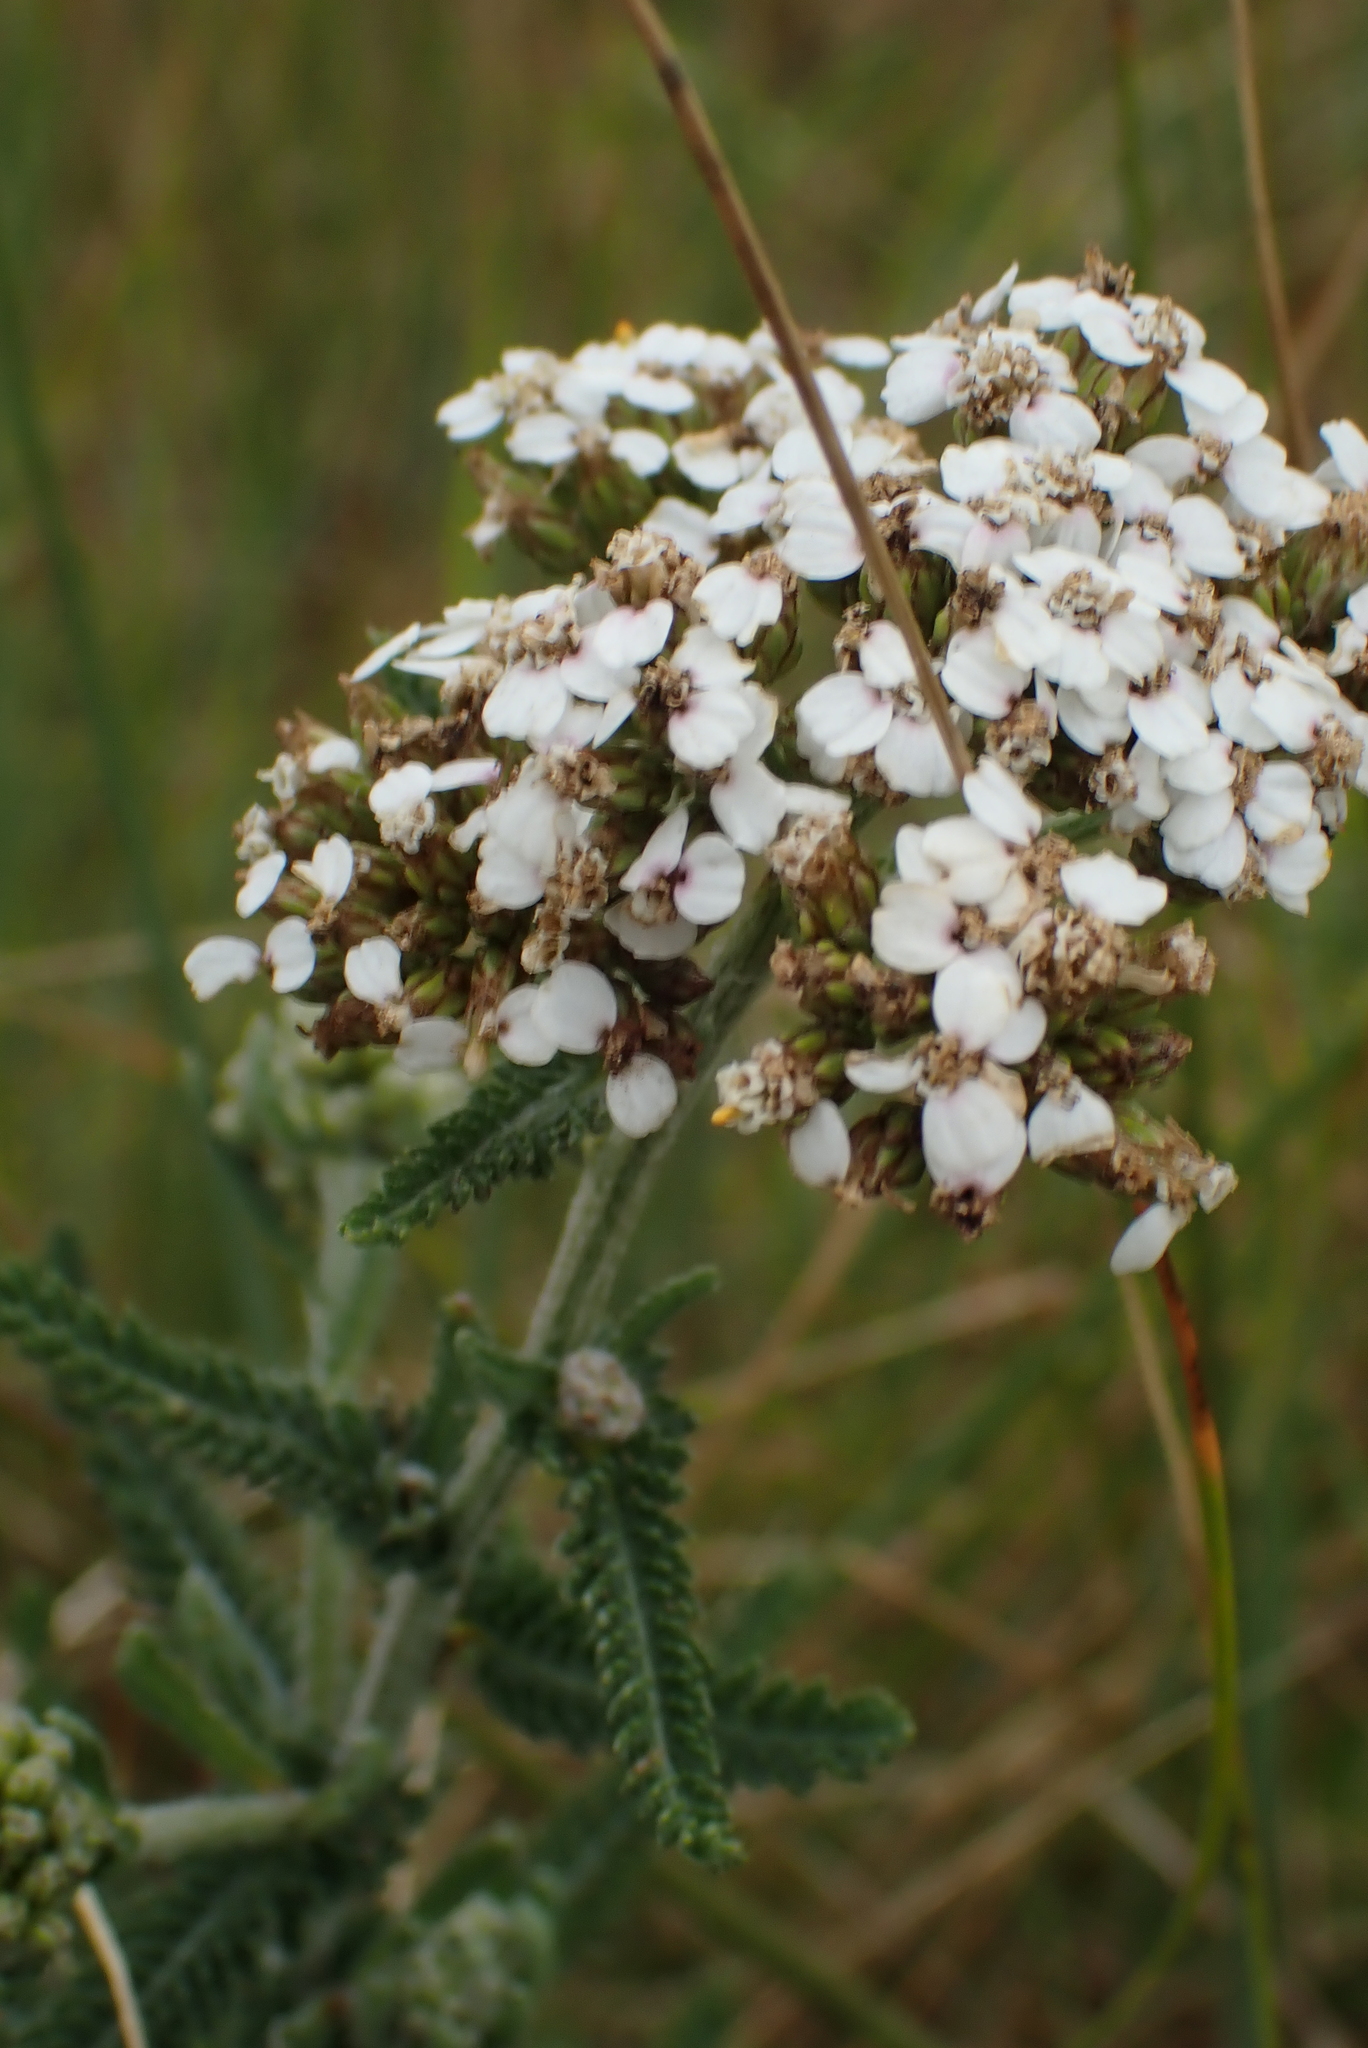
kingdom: Plantae
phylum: Tracheophyta
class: Magnoliopsida
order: Asterales
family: Asteraceae
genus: Achillea
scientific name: Achillea millefolium
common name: Yarrow
